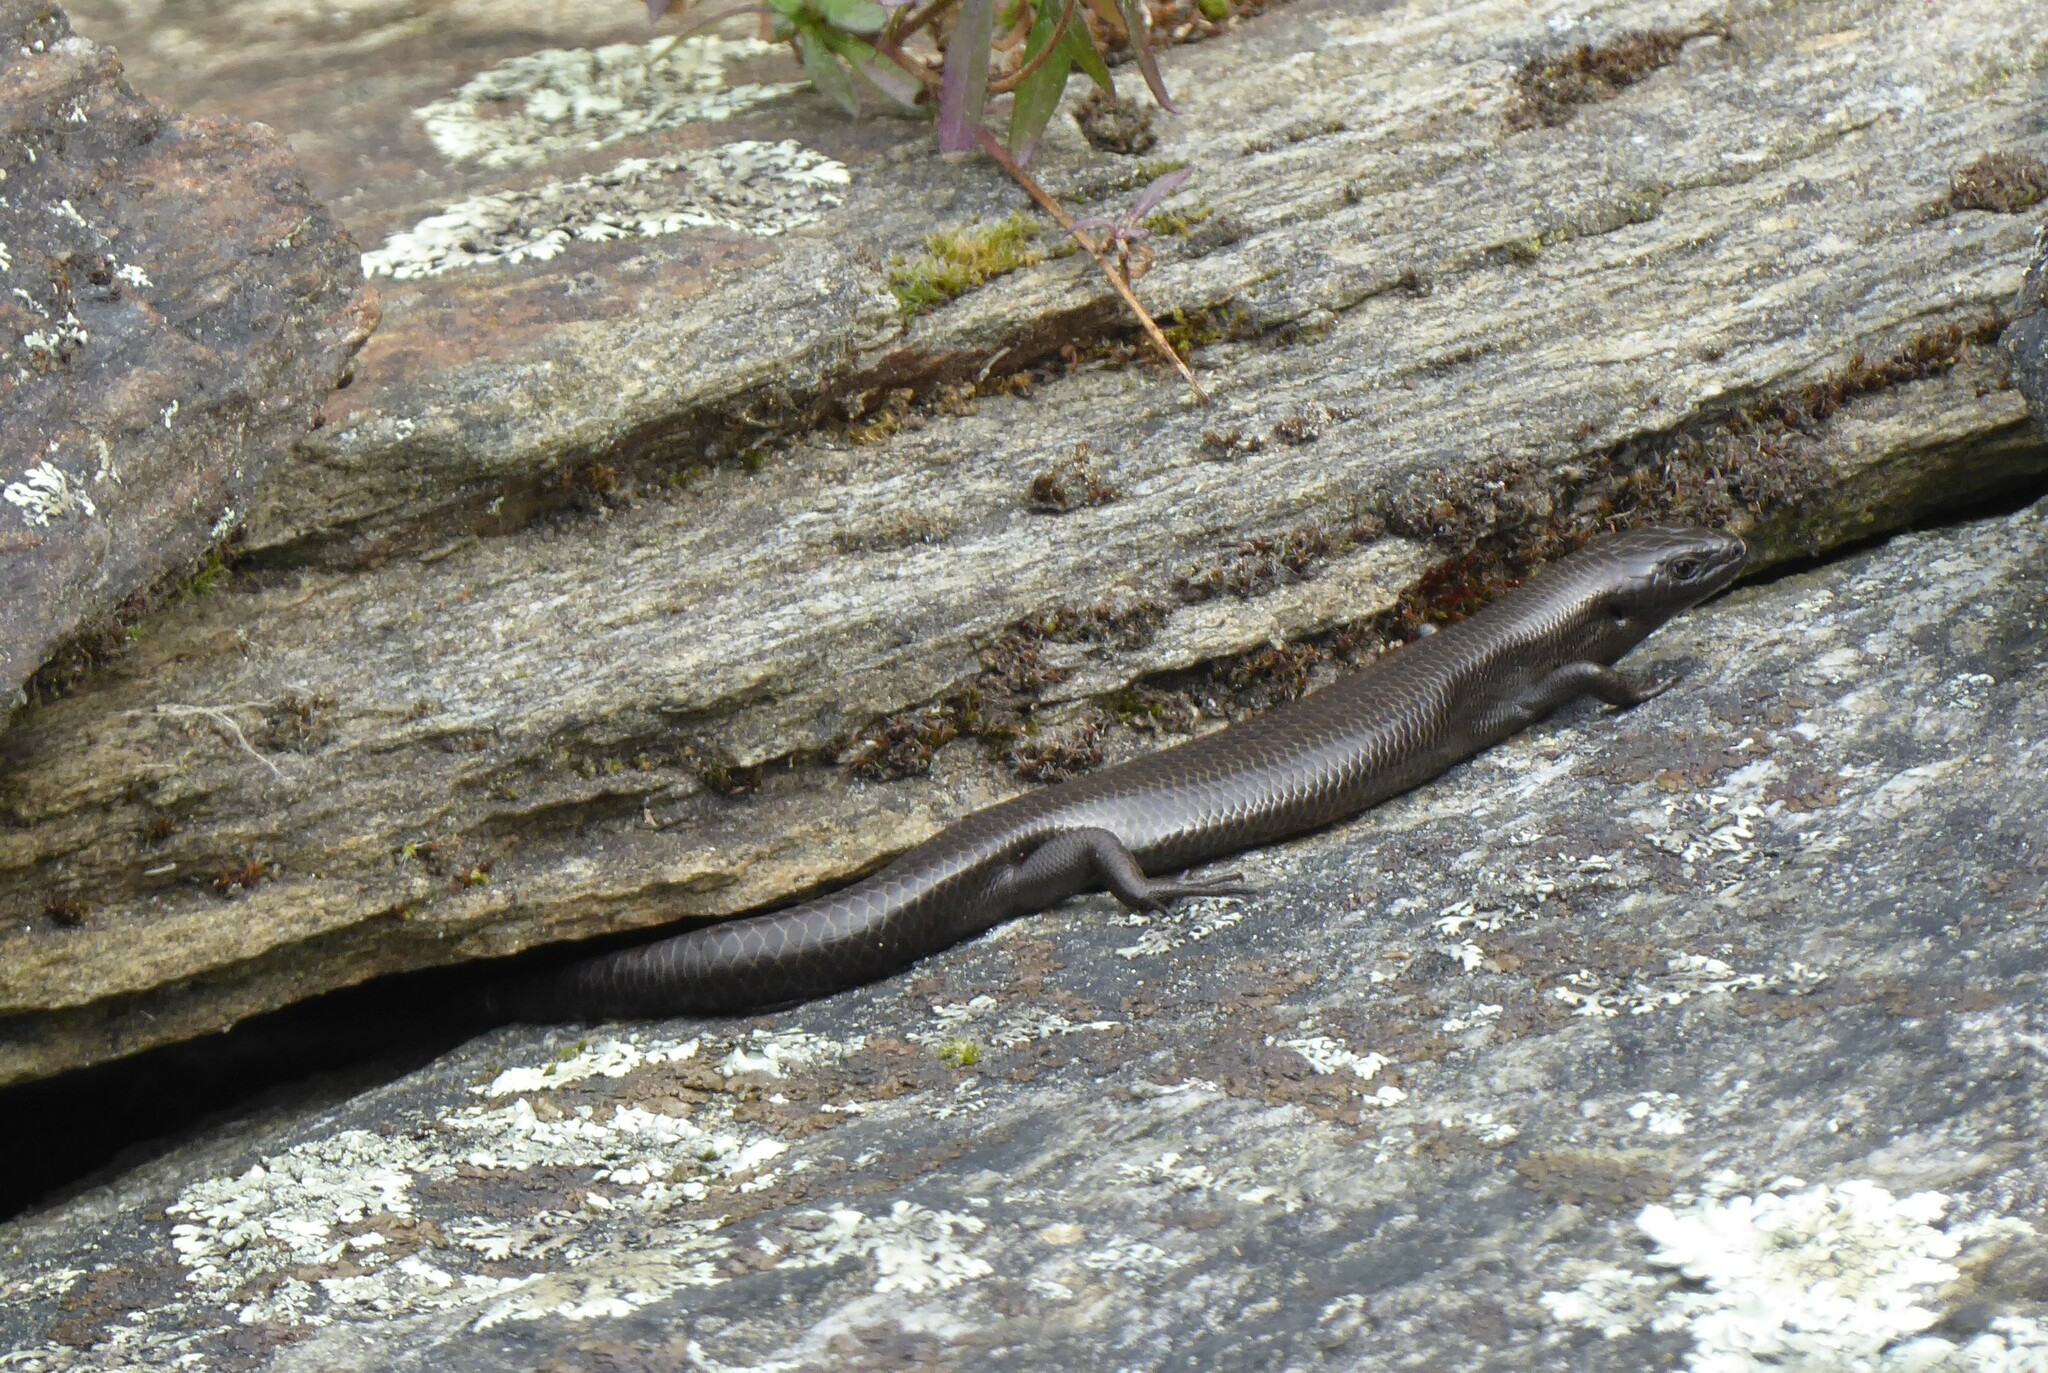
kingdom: Animalia
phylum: Chordata
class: Squamata
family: Scincidae
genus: Oligosoma
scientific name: Oligosoma polychroma
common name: Common new zealand skink
